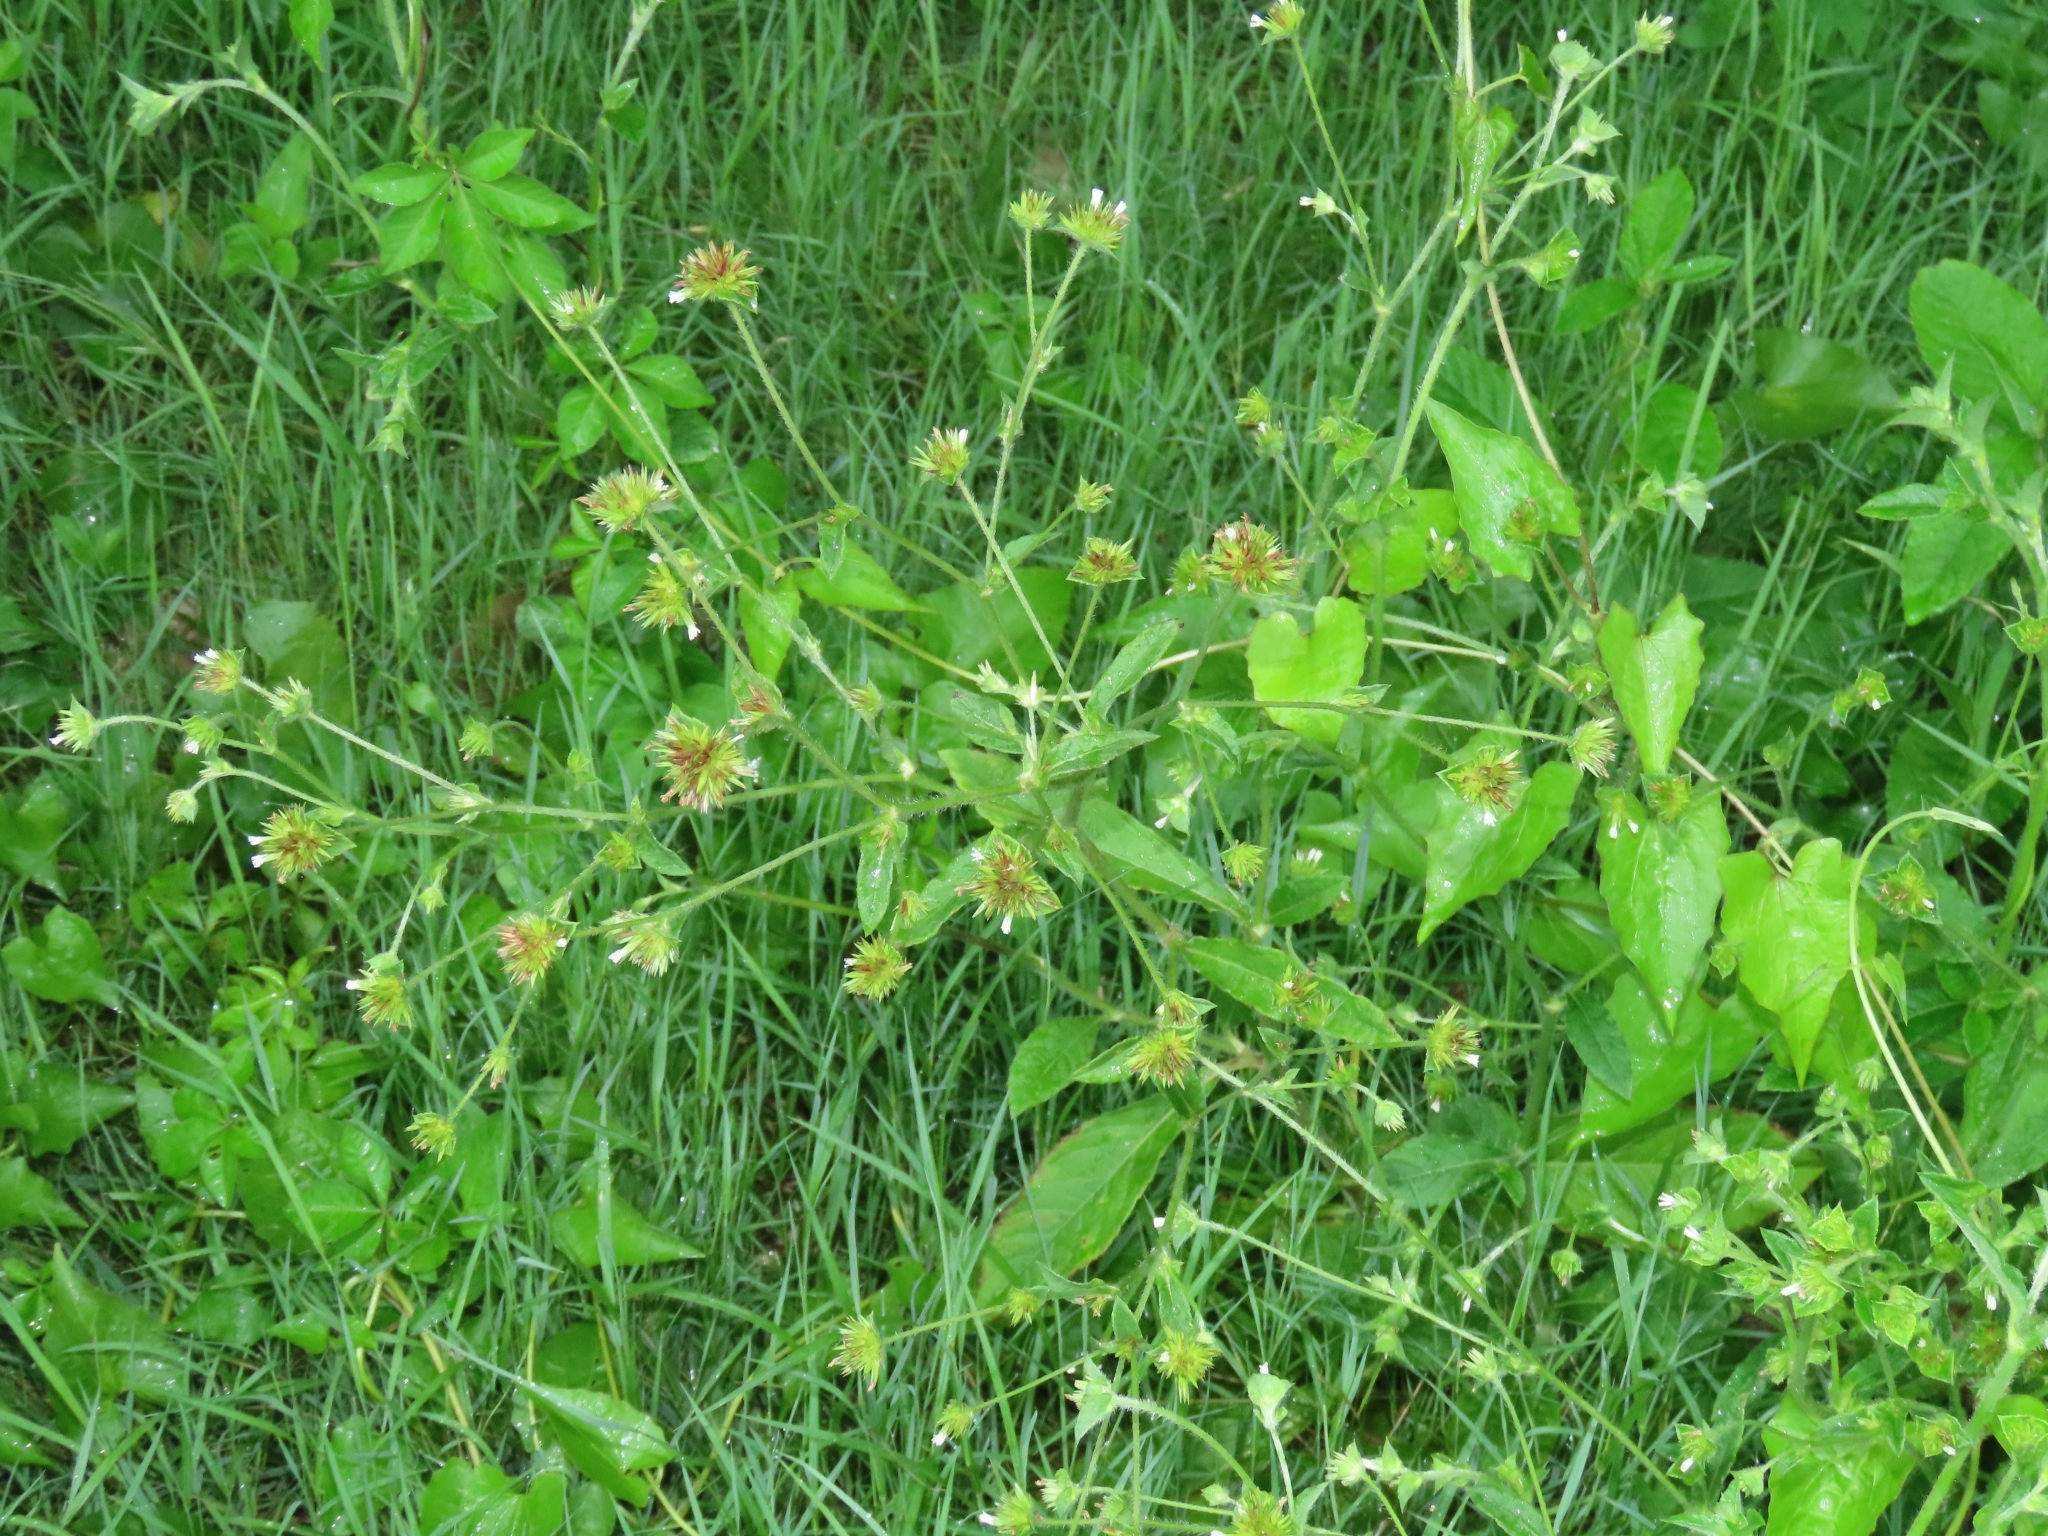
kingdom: Plantae
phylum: Tracheophyta
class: Magnoliopsida
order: Asterales
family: Asteraceae
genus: Elephantopus
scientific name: Elephantopus mollis
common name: Soft elephantsfoot
